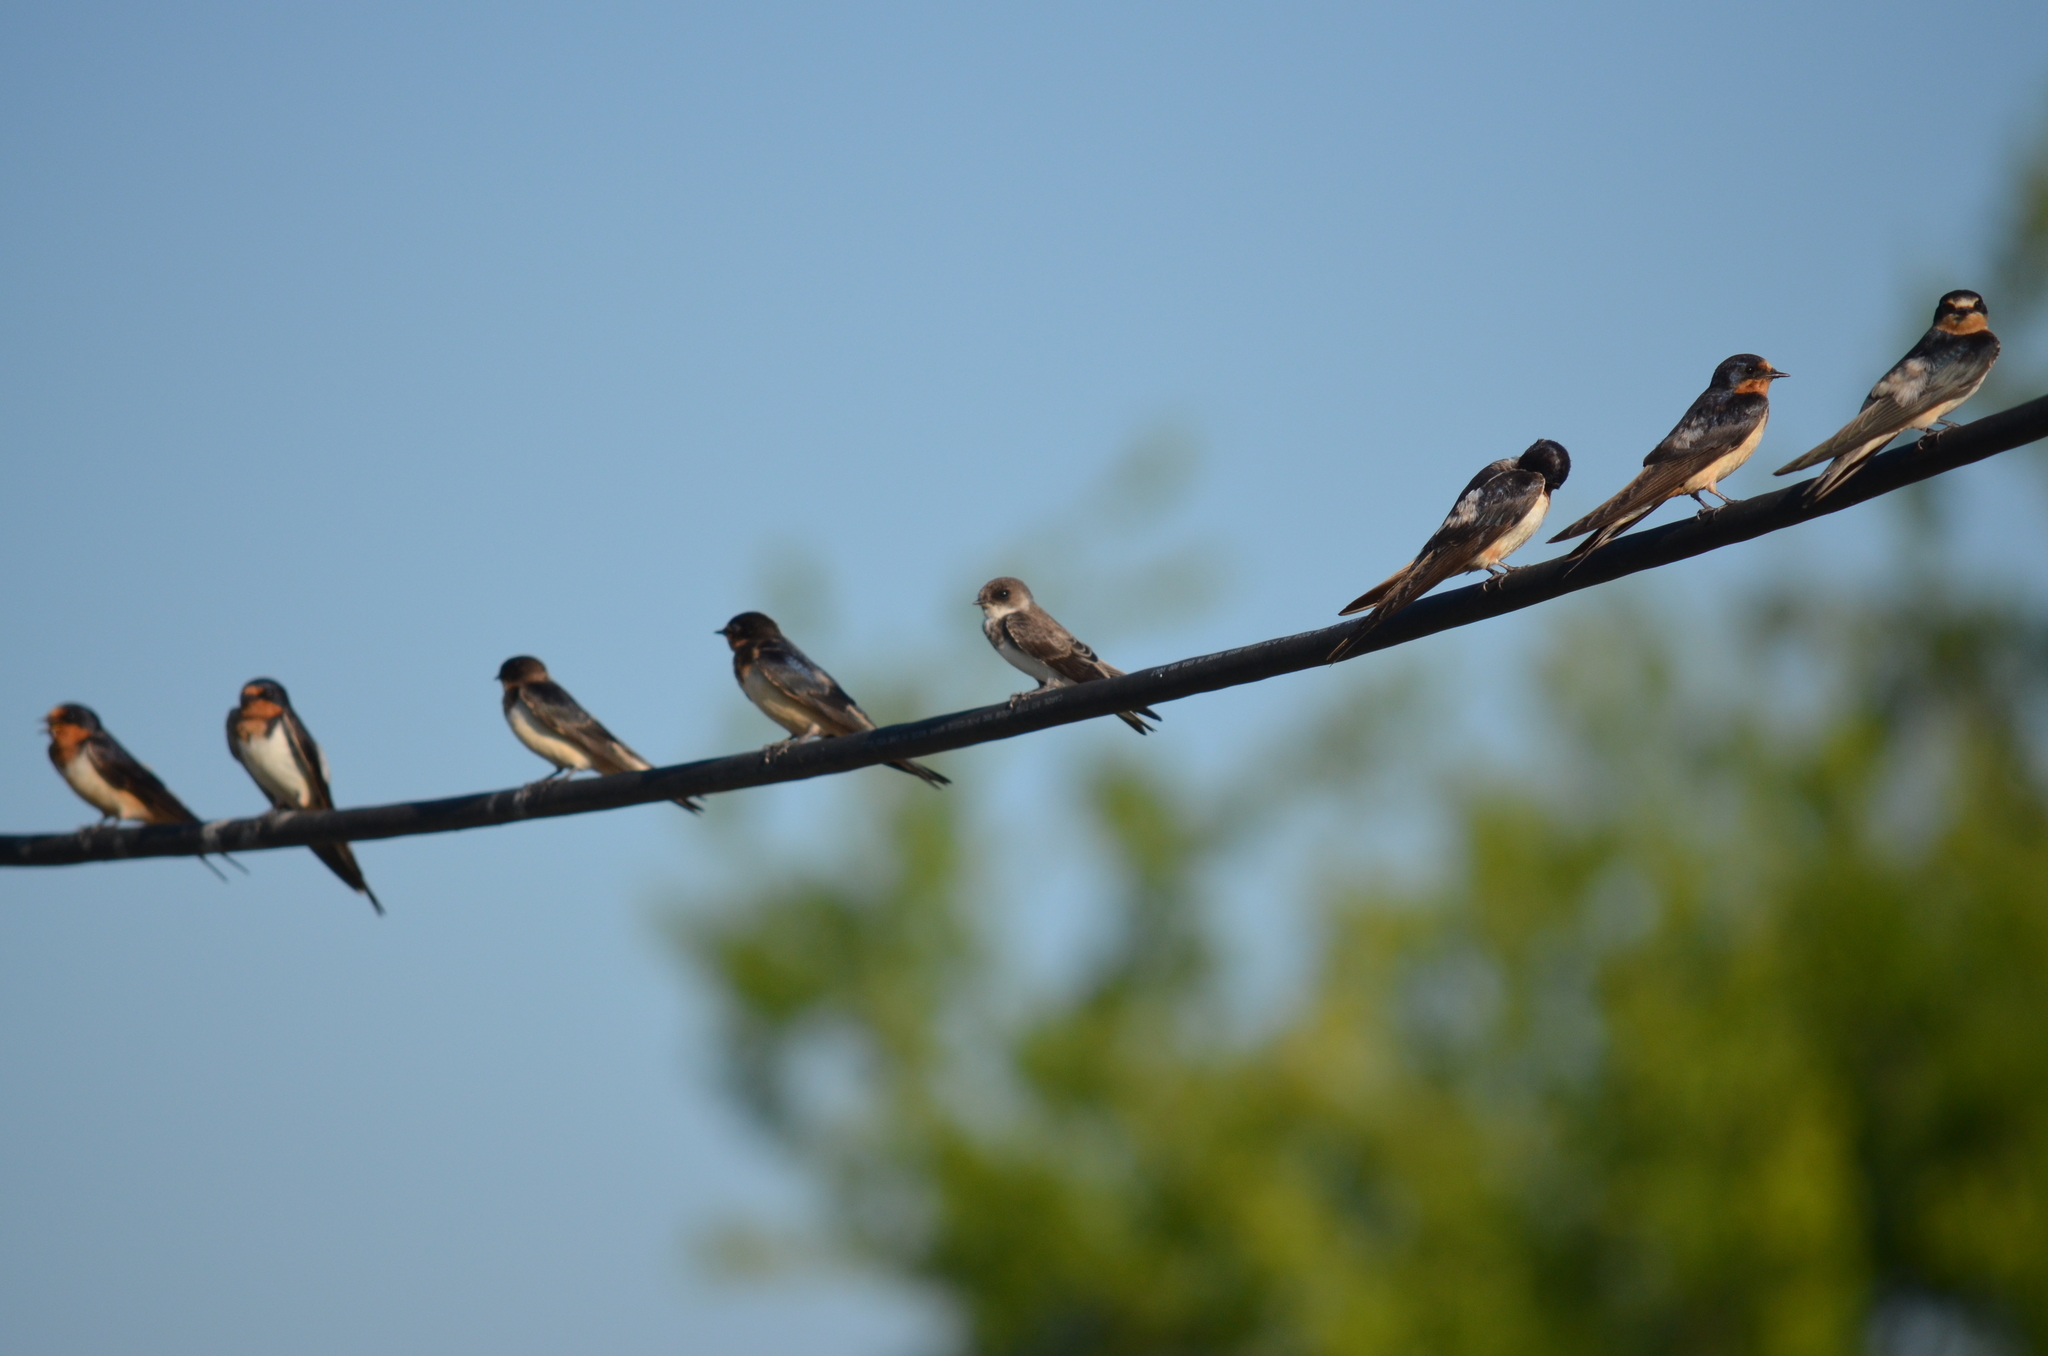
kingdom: Animalia
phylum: Chordata
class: Aves
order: Passeriformes
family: Hirundinidae
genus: Riparia
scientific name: Riparia riparia
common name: Sand martin
